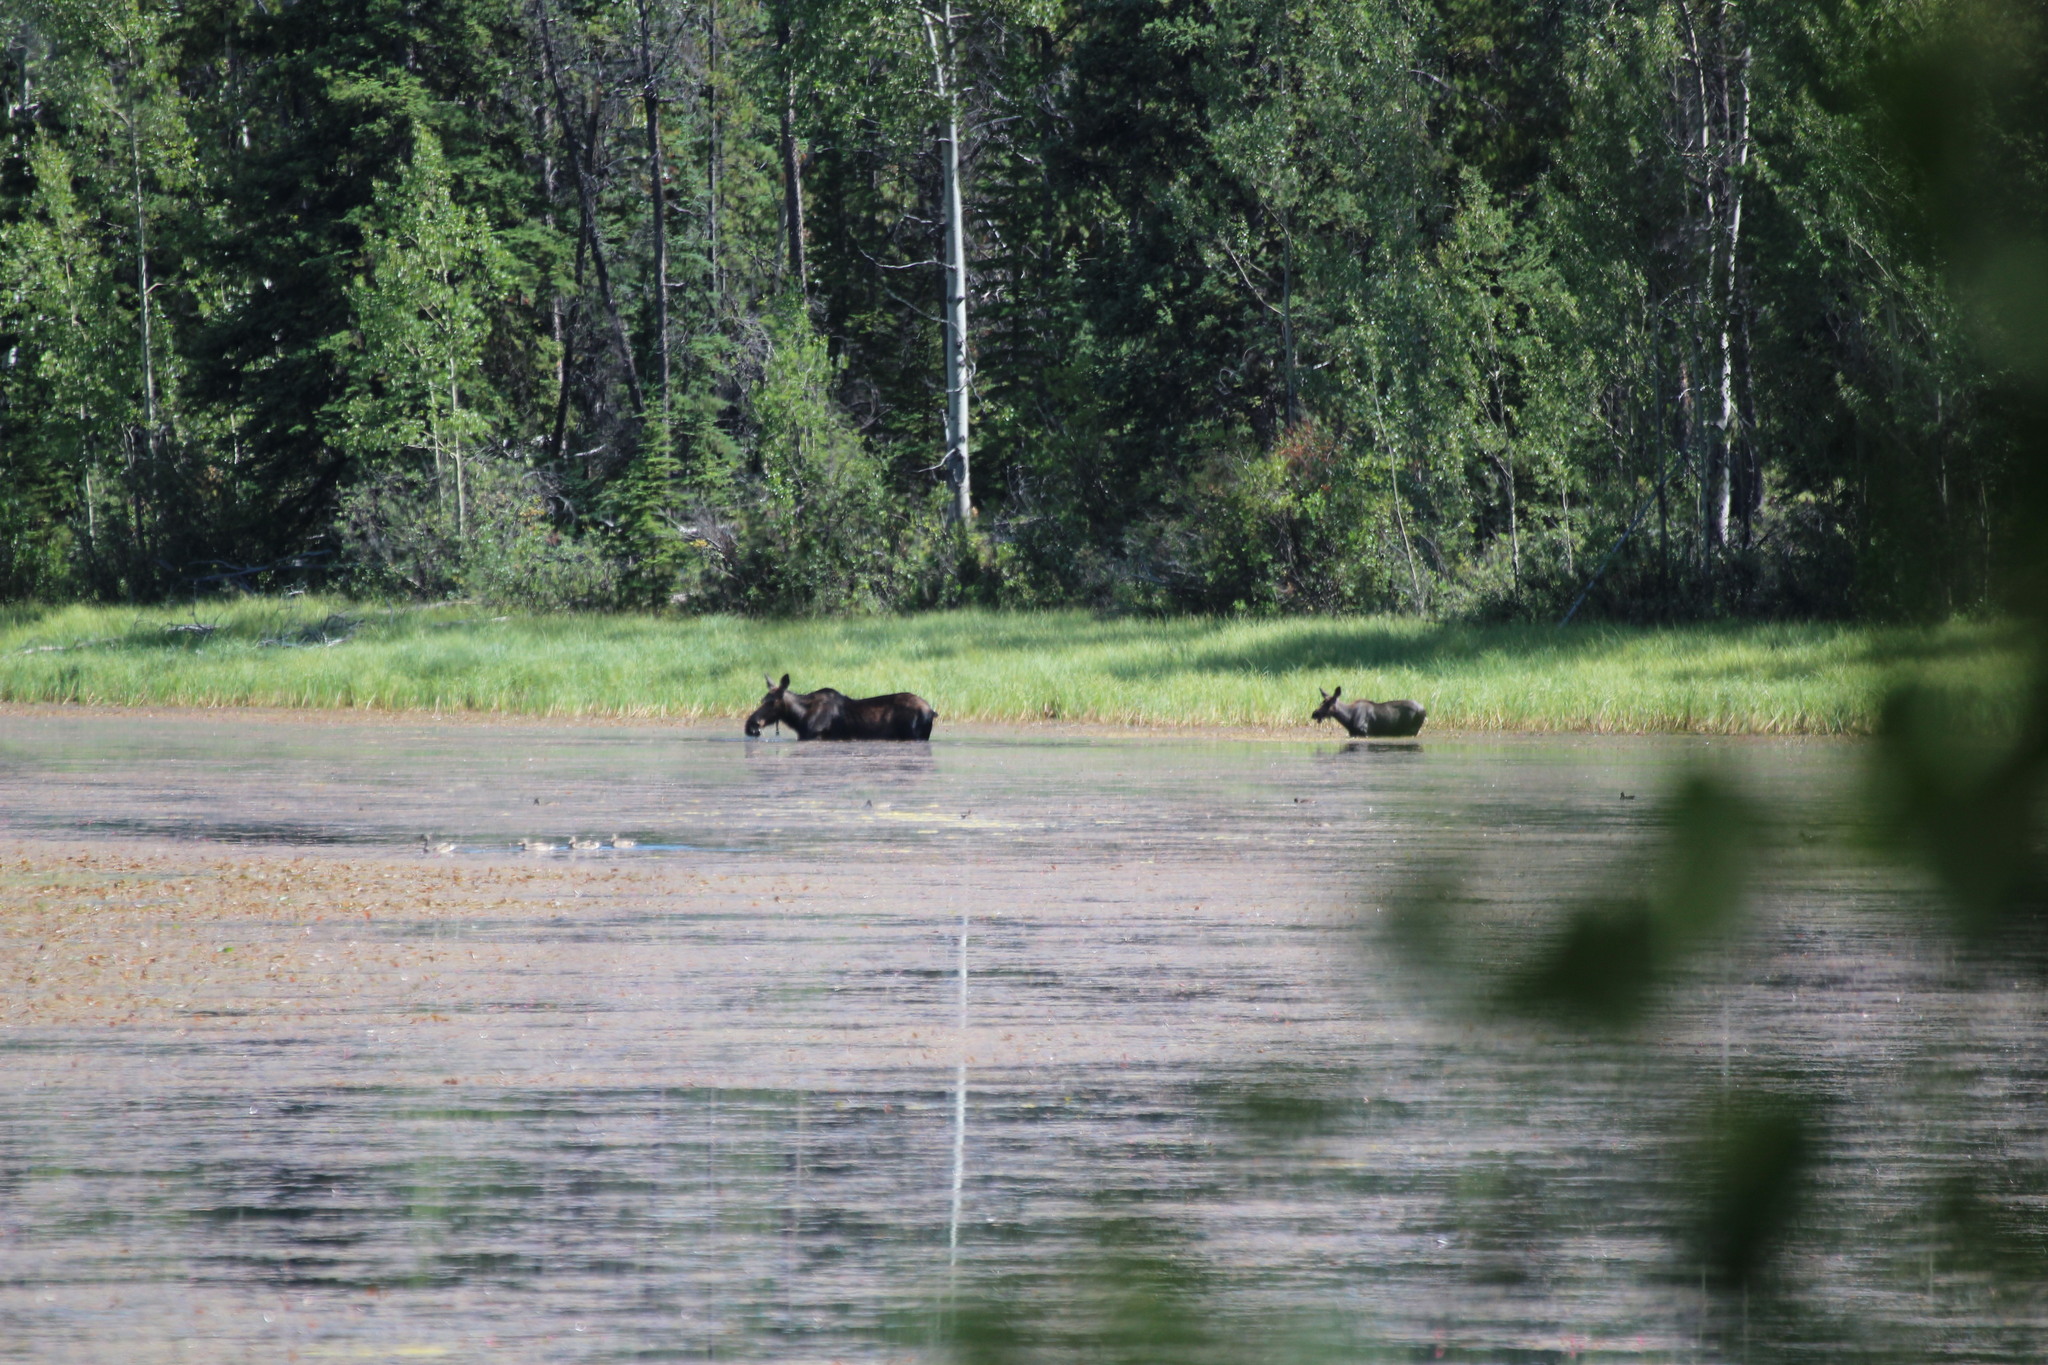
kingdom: Animalia
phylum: Chordata
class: Mammalia
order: Artiodactyla
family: Cervidae
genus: Alces
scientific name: Alces alces
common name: Moose
